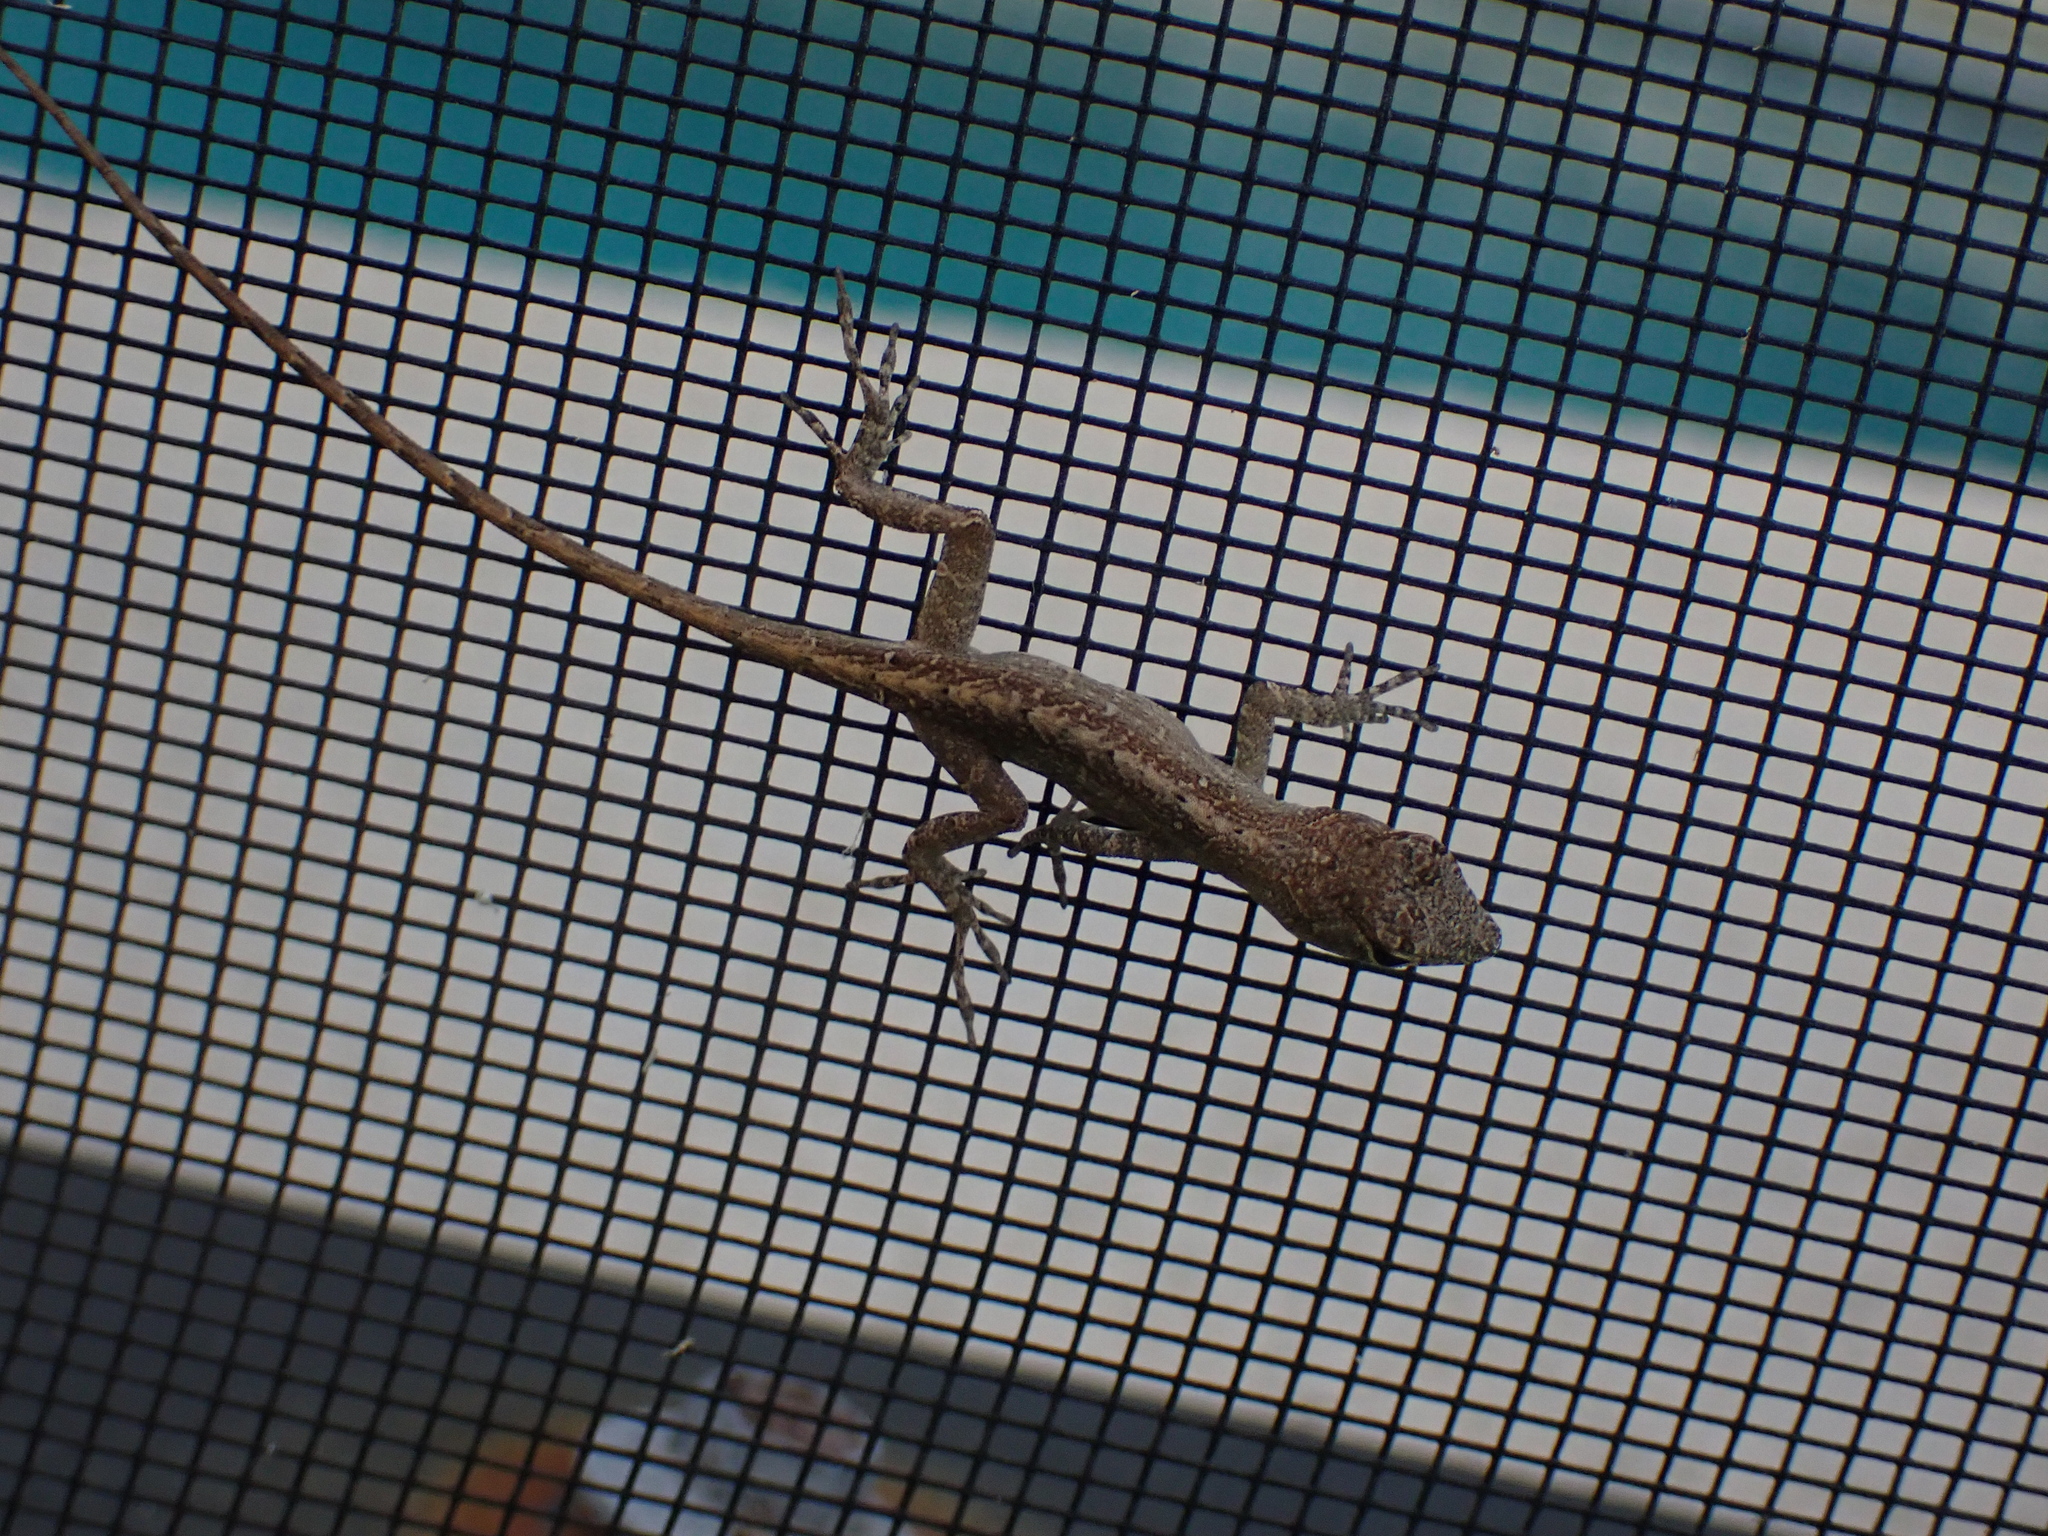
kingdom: Animalia
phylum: Chordata
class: Squamata
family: Dactyloidae
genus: Anolis
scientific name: Anolis sagrei
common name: Brown anole
